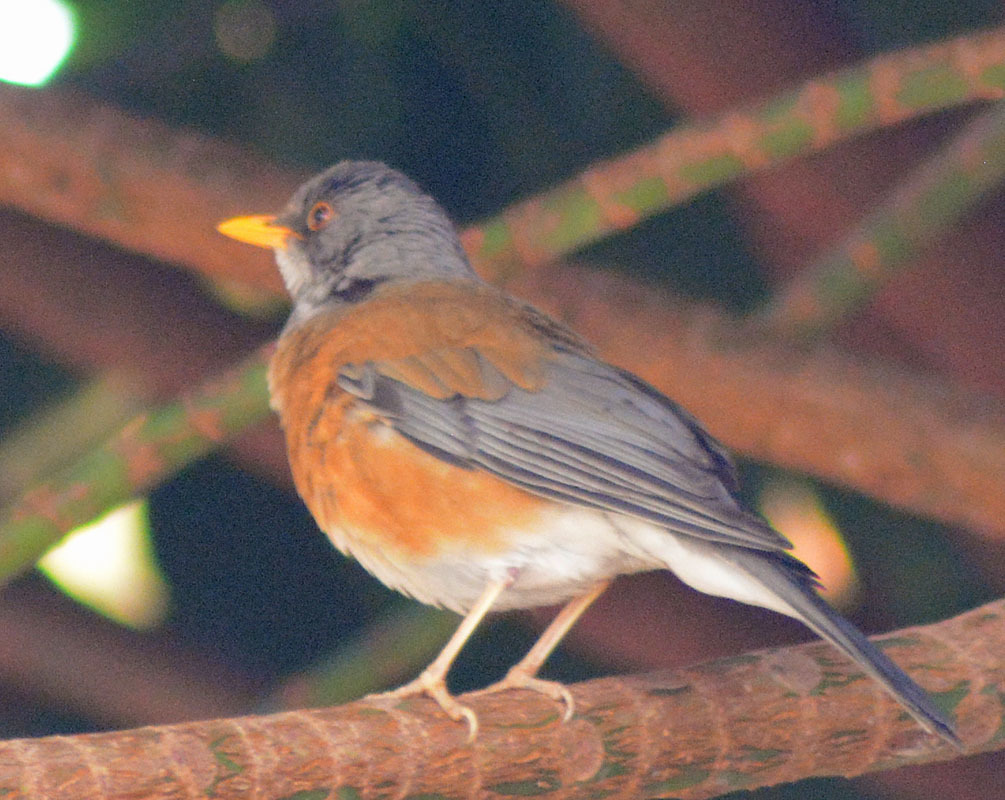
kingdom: Animalia
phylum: Chordata
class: Aves
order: Passeriformes
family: Turdidae
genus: Turdus
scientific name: Turdus rufopalliatus
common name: Rufous-backed robin
